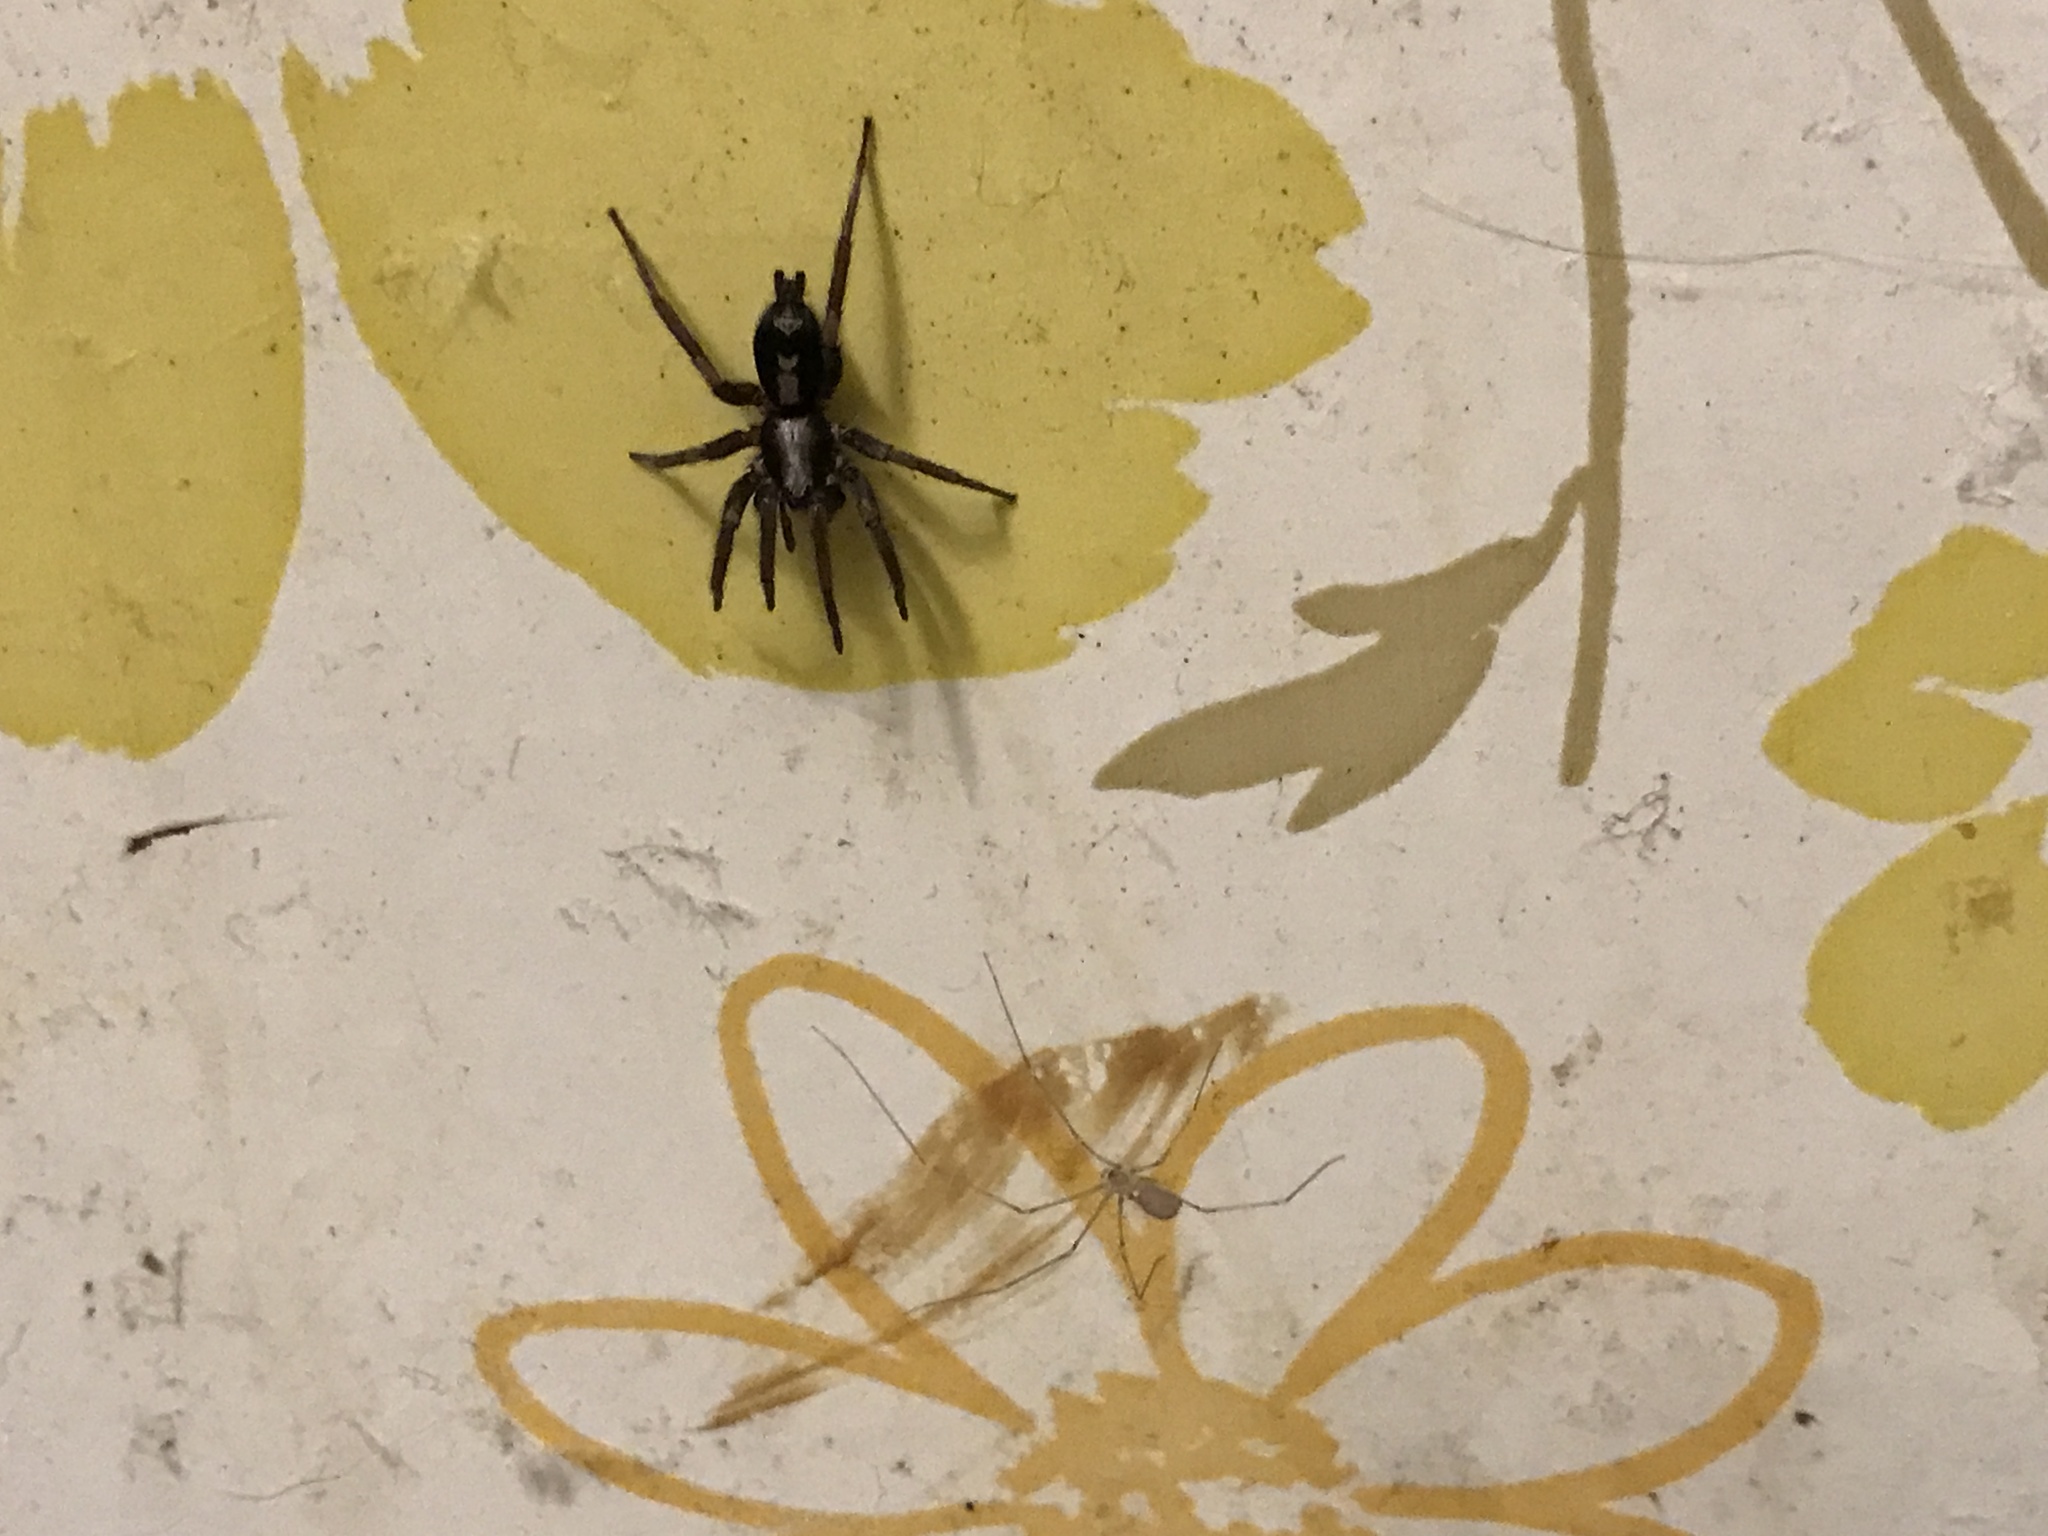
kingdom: Animalia
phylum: Arthropoda
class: Arachnida
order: Araneae
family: Gnaphosidae
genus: Herpyllus
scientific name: Herpyllus ecclesiasticus
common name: Eastern parson spider
